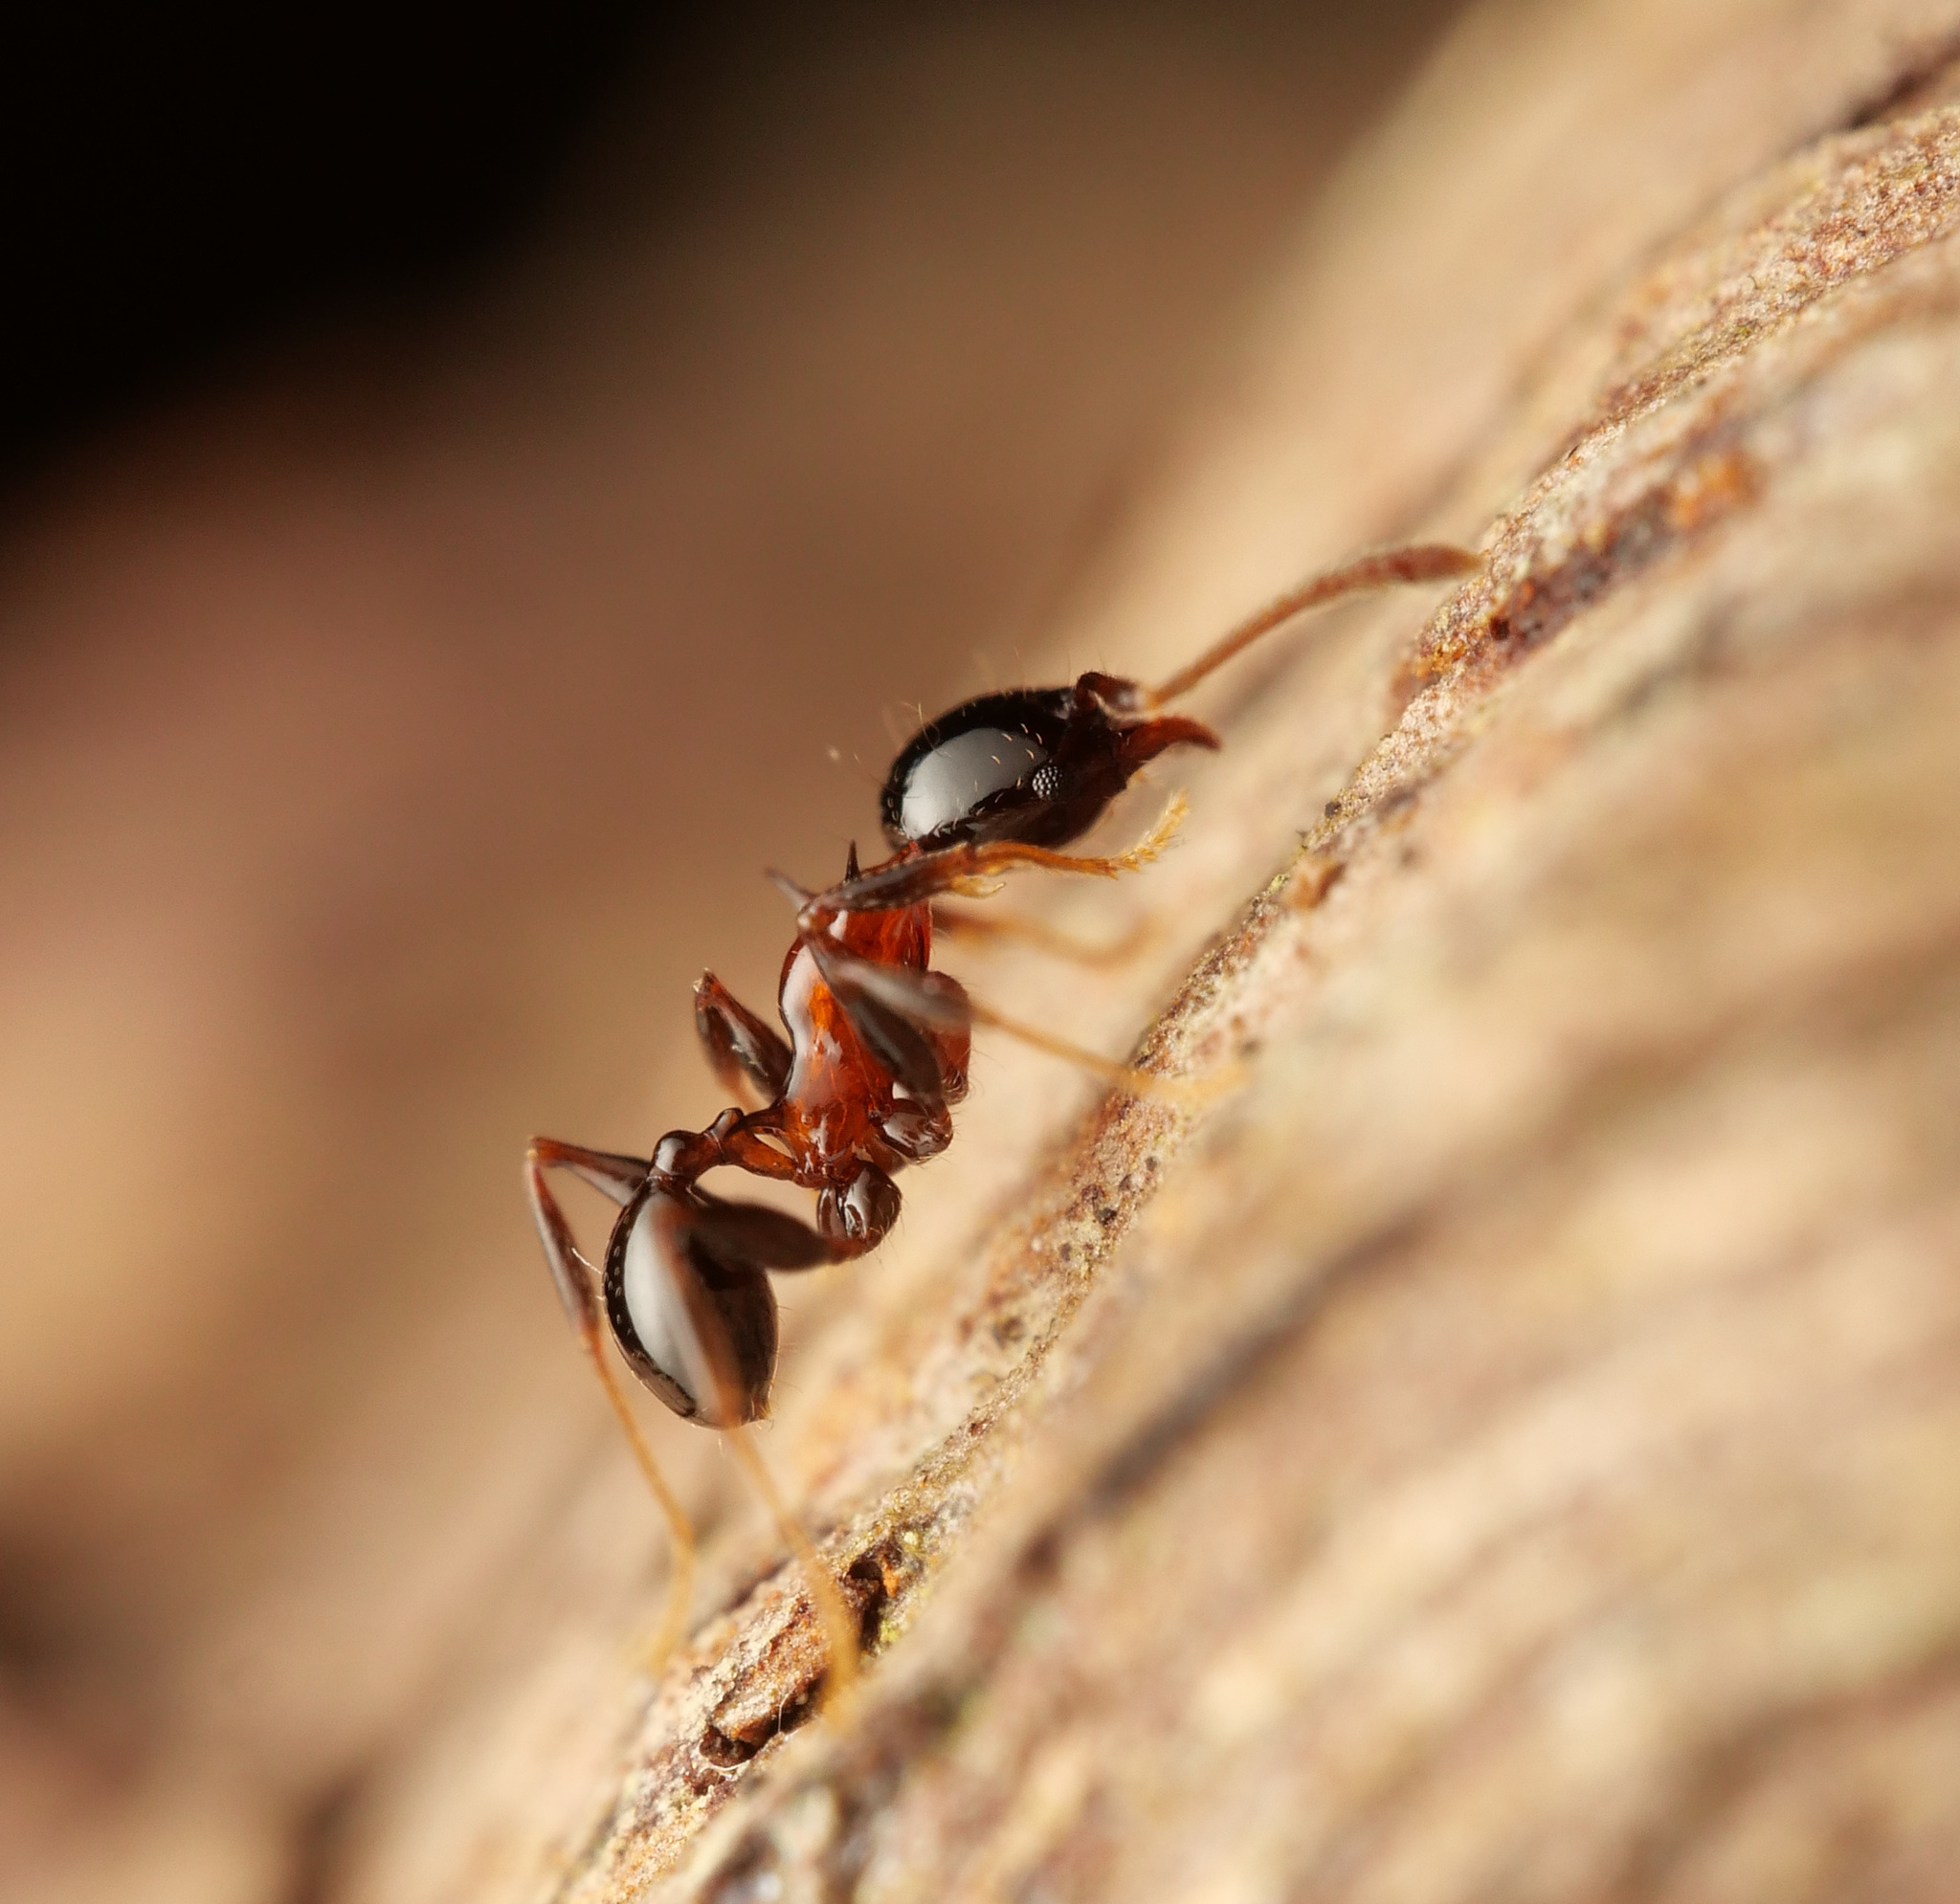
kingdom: Animalia
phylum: Arthropoda
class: Insecta
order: Hymenoptera
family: Formicidae
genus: Pheidole
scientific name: Pheidole tricolor
